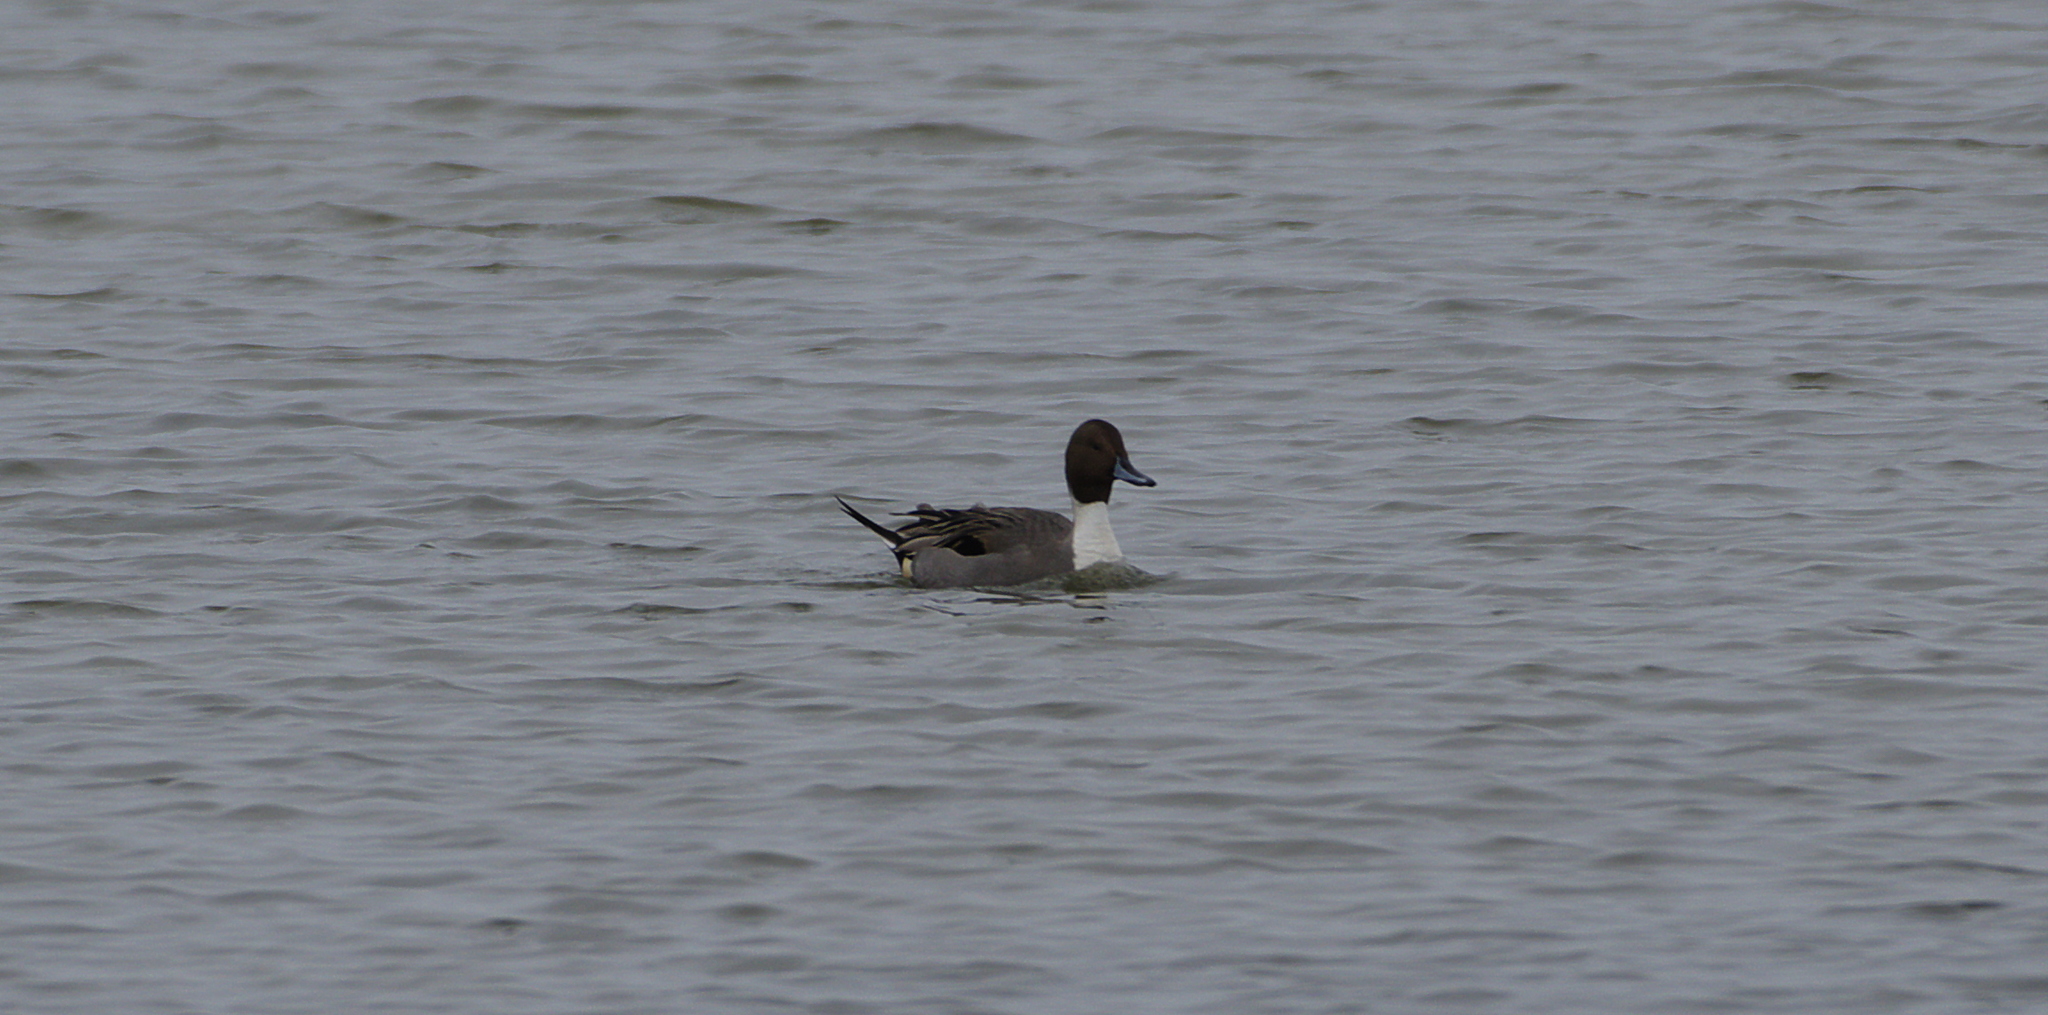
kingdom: Animalia
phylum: Chordata
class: Aves
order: Anseriformes
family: Anatidae
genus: Anas
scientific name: Anas acuta
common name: Northern pintail
